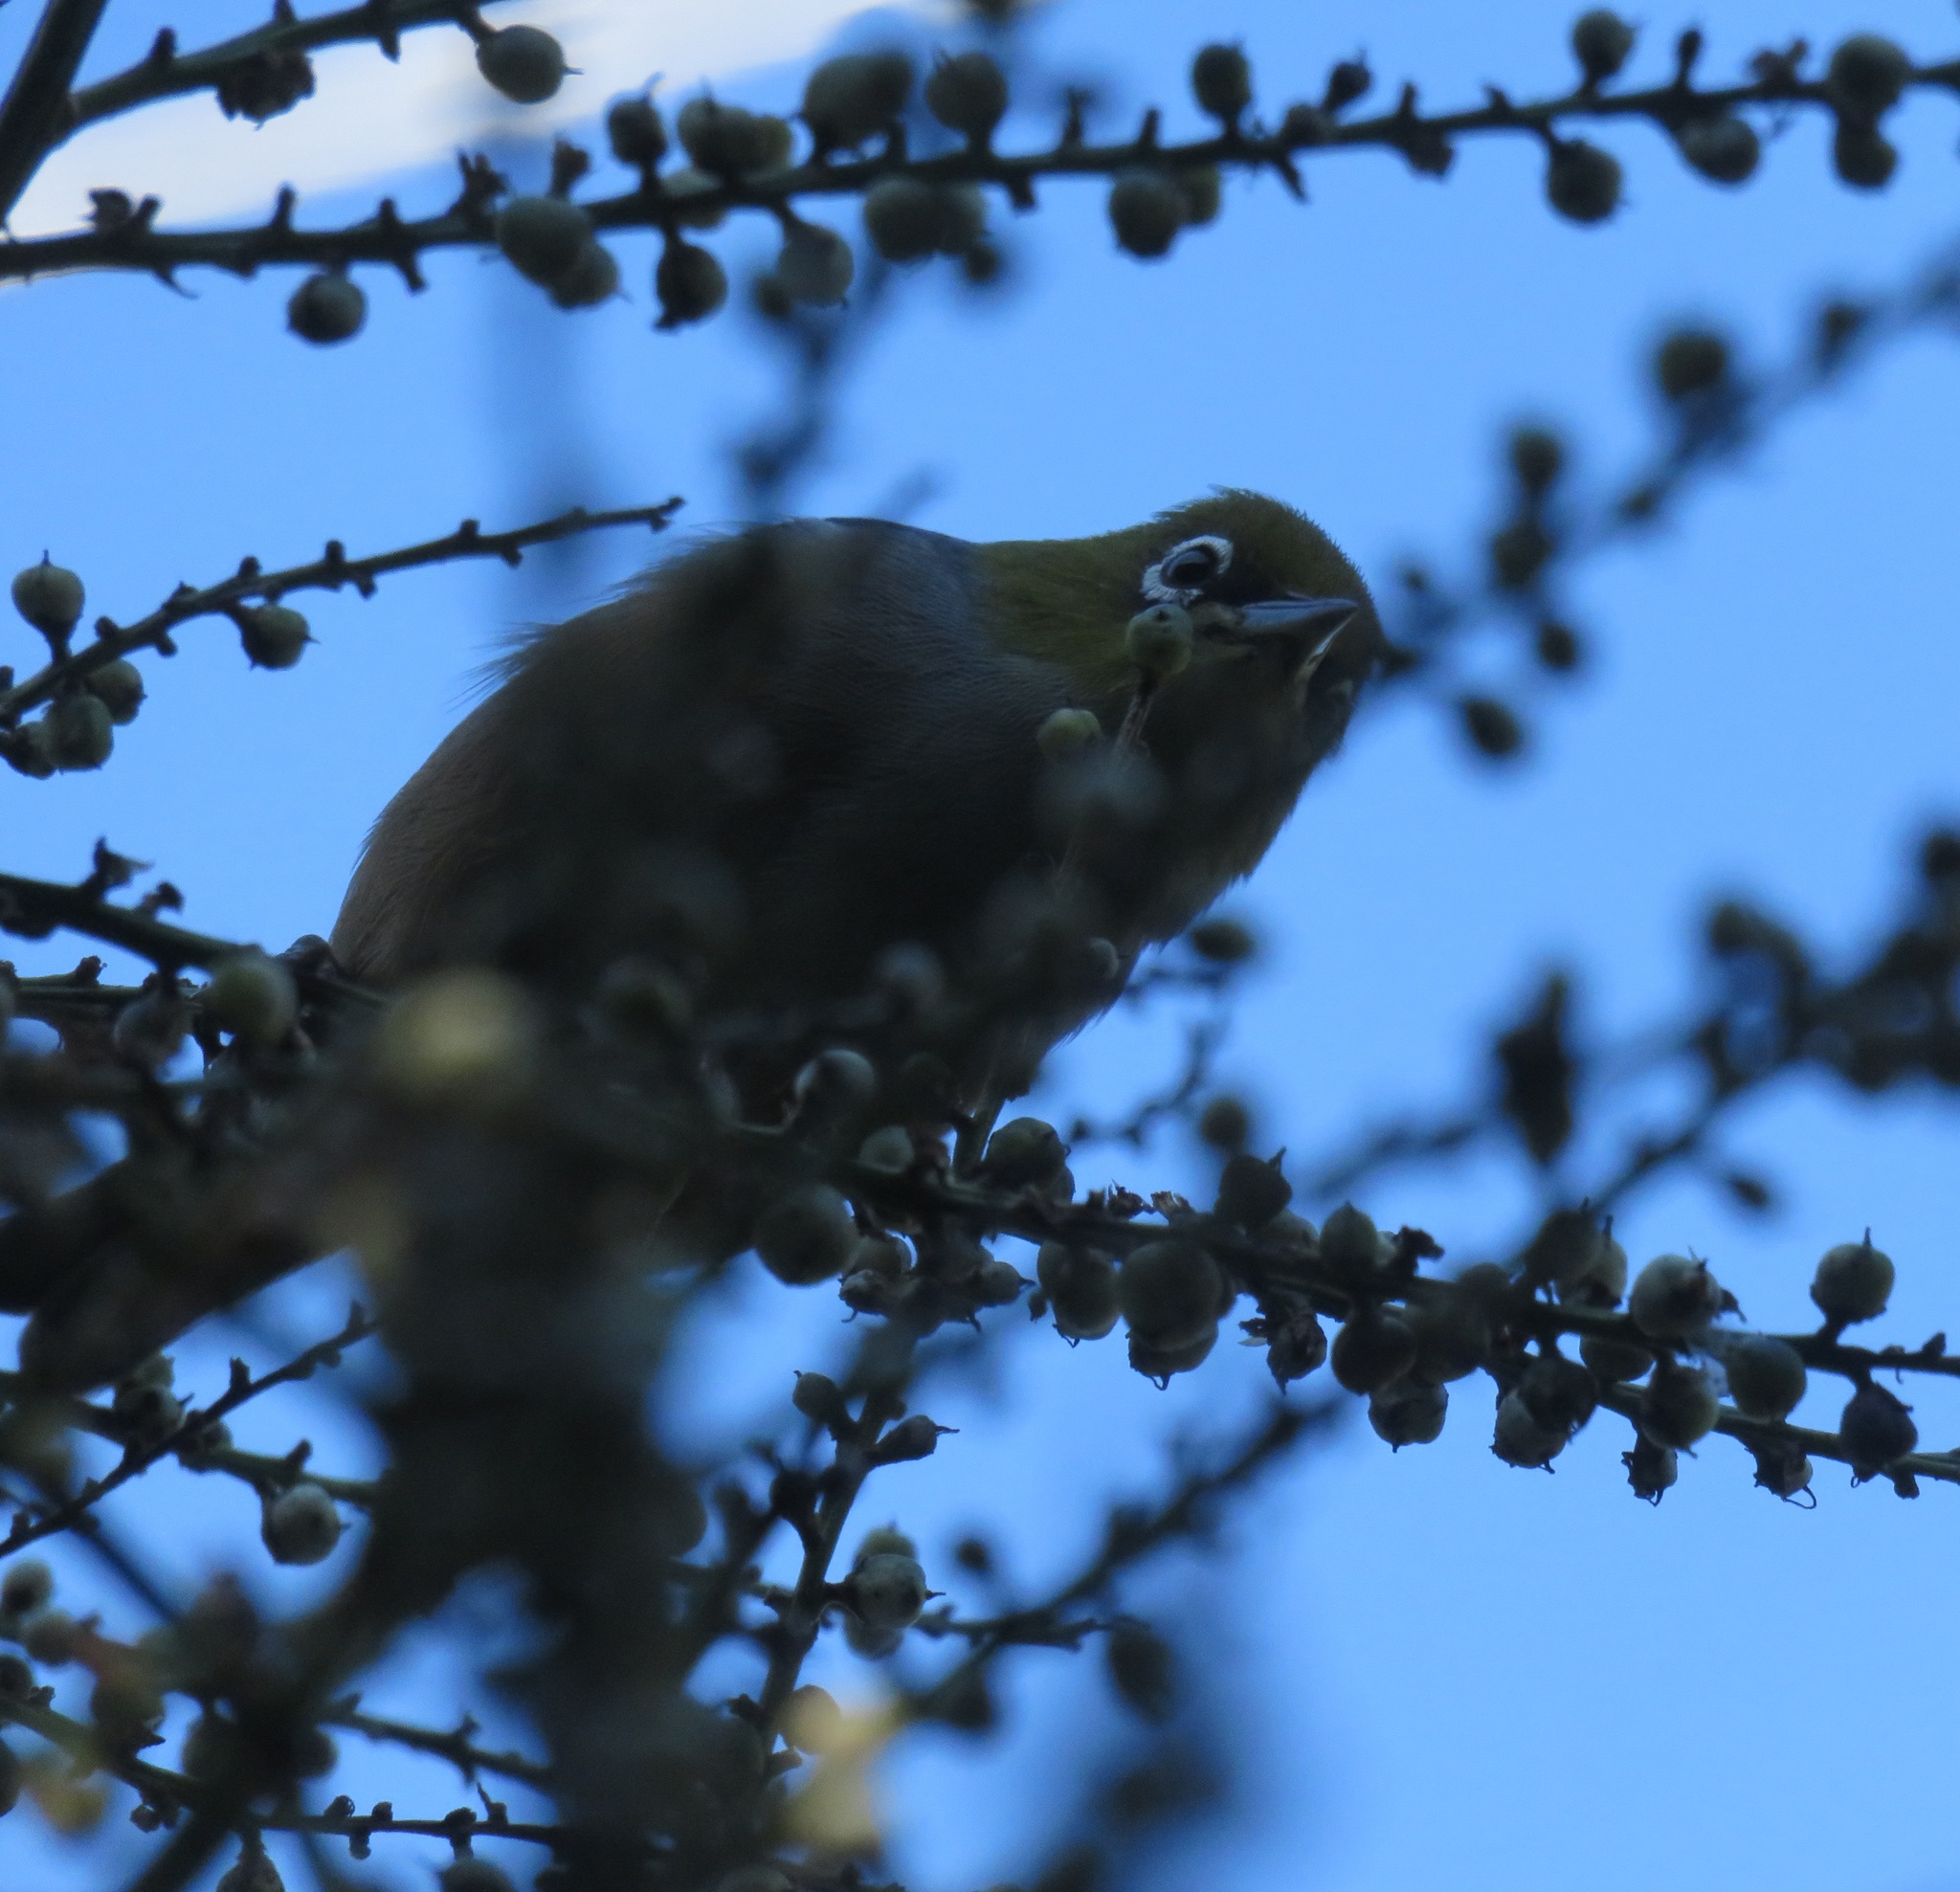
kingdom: Animalia
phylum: Chordata
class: Aves
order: Passeriformes
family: Zosteropidae
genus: Zosterops
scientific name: Zosterops lateralis
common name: Silvereye
